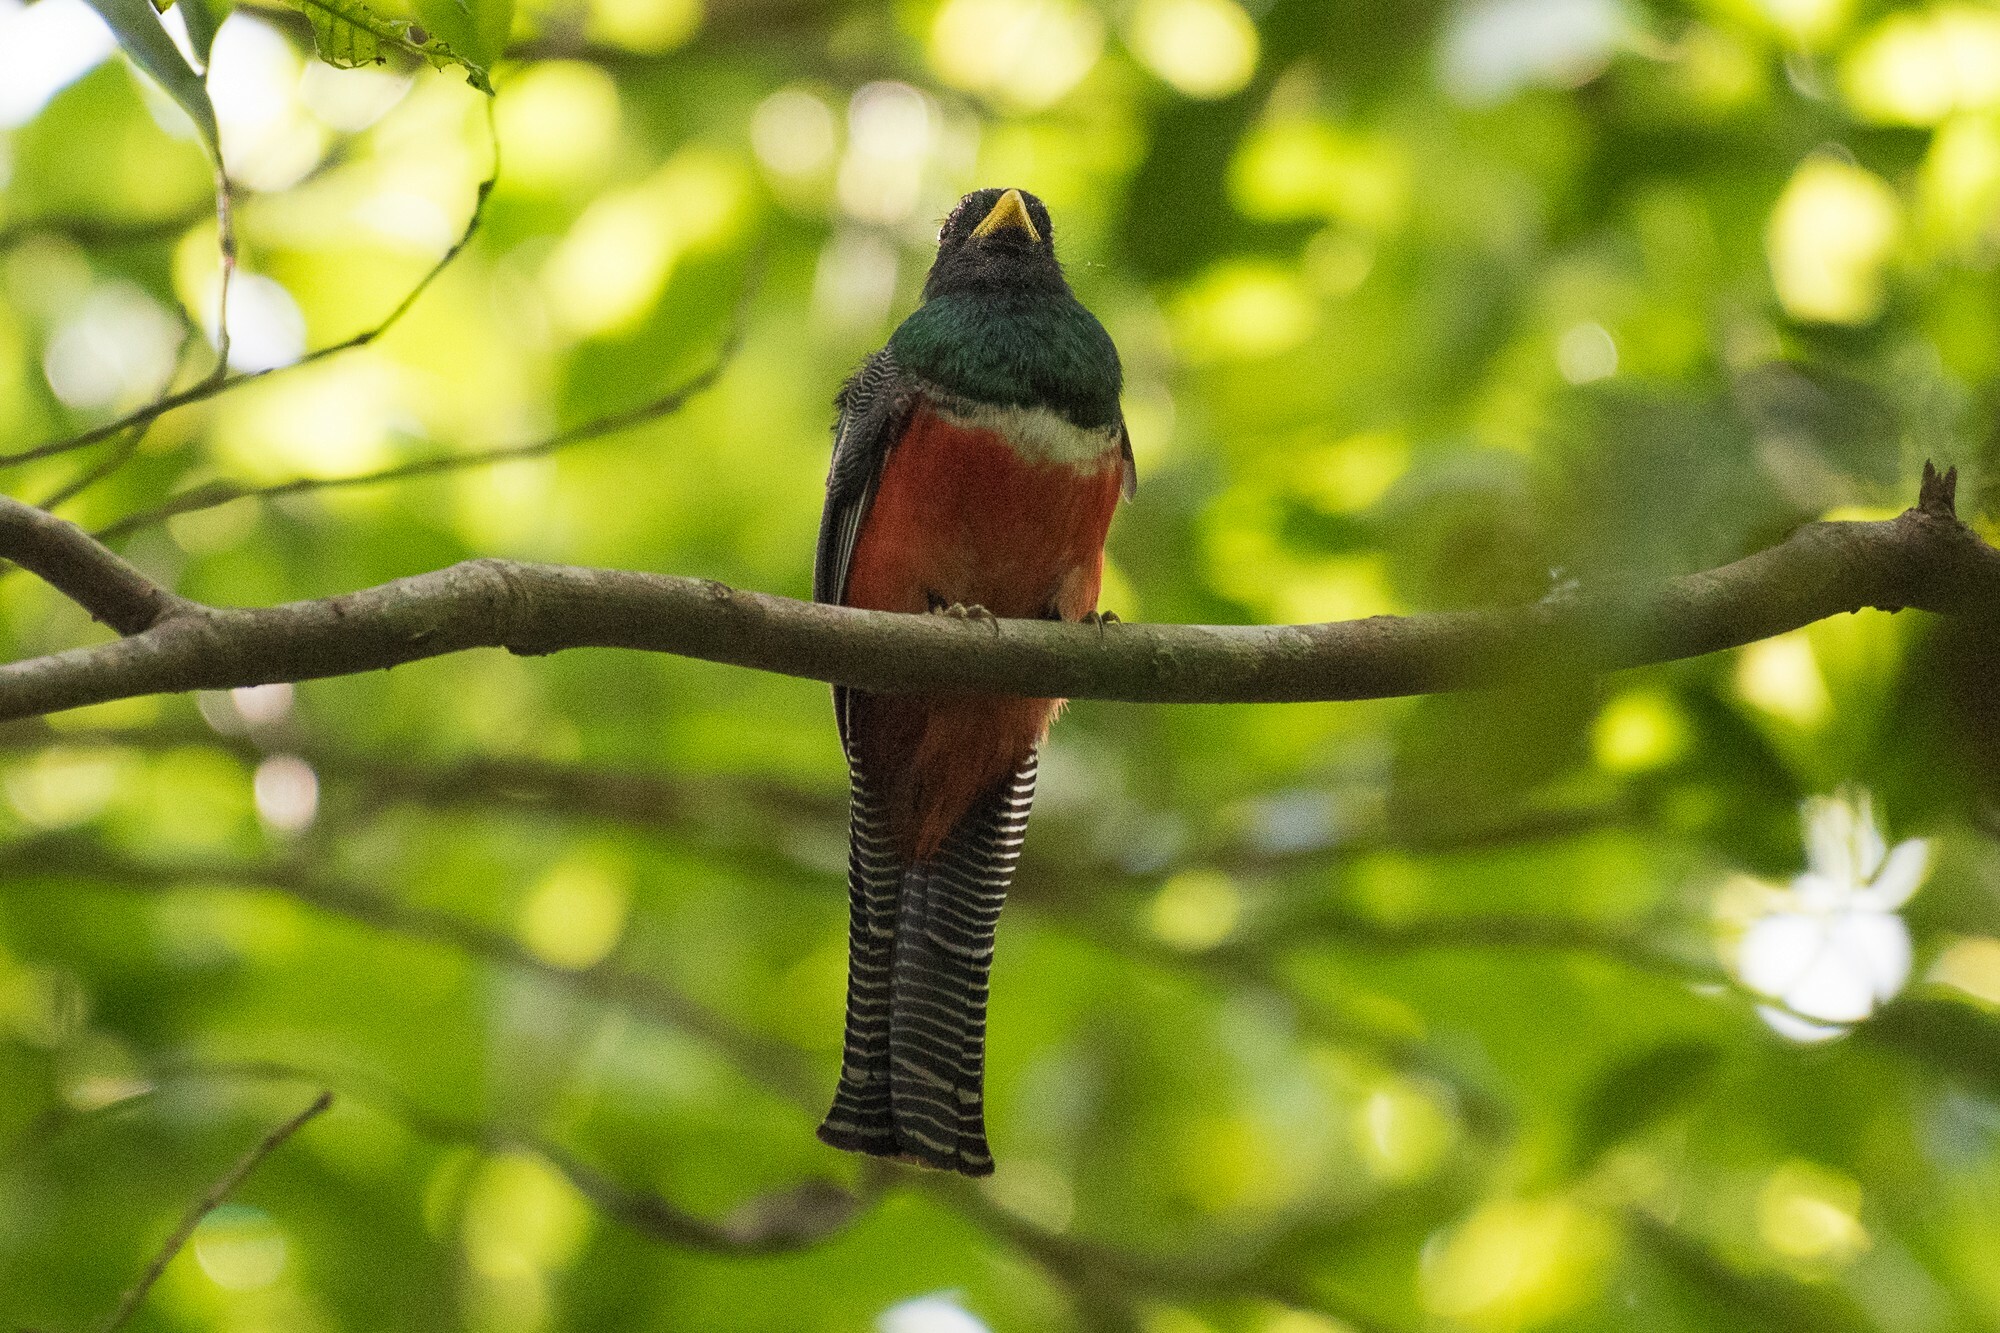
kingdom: Animalia
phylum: Chordata
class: Aves
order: Trogoniformes
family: Trogonidae
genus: Trogon
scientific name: Trogon collaris
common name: Collared trogon
